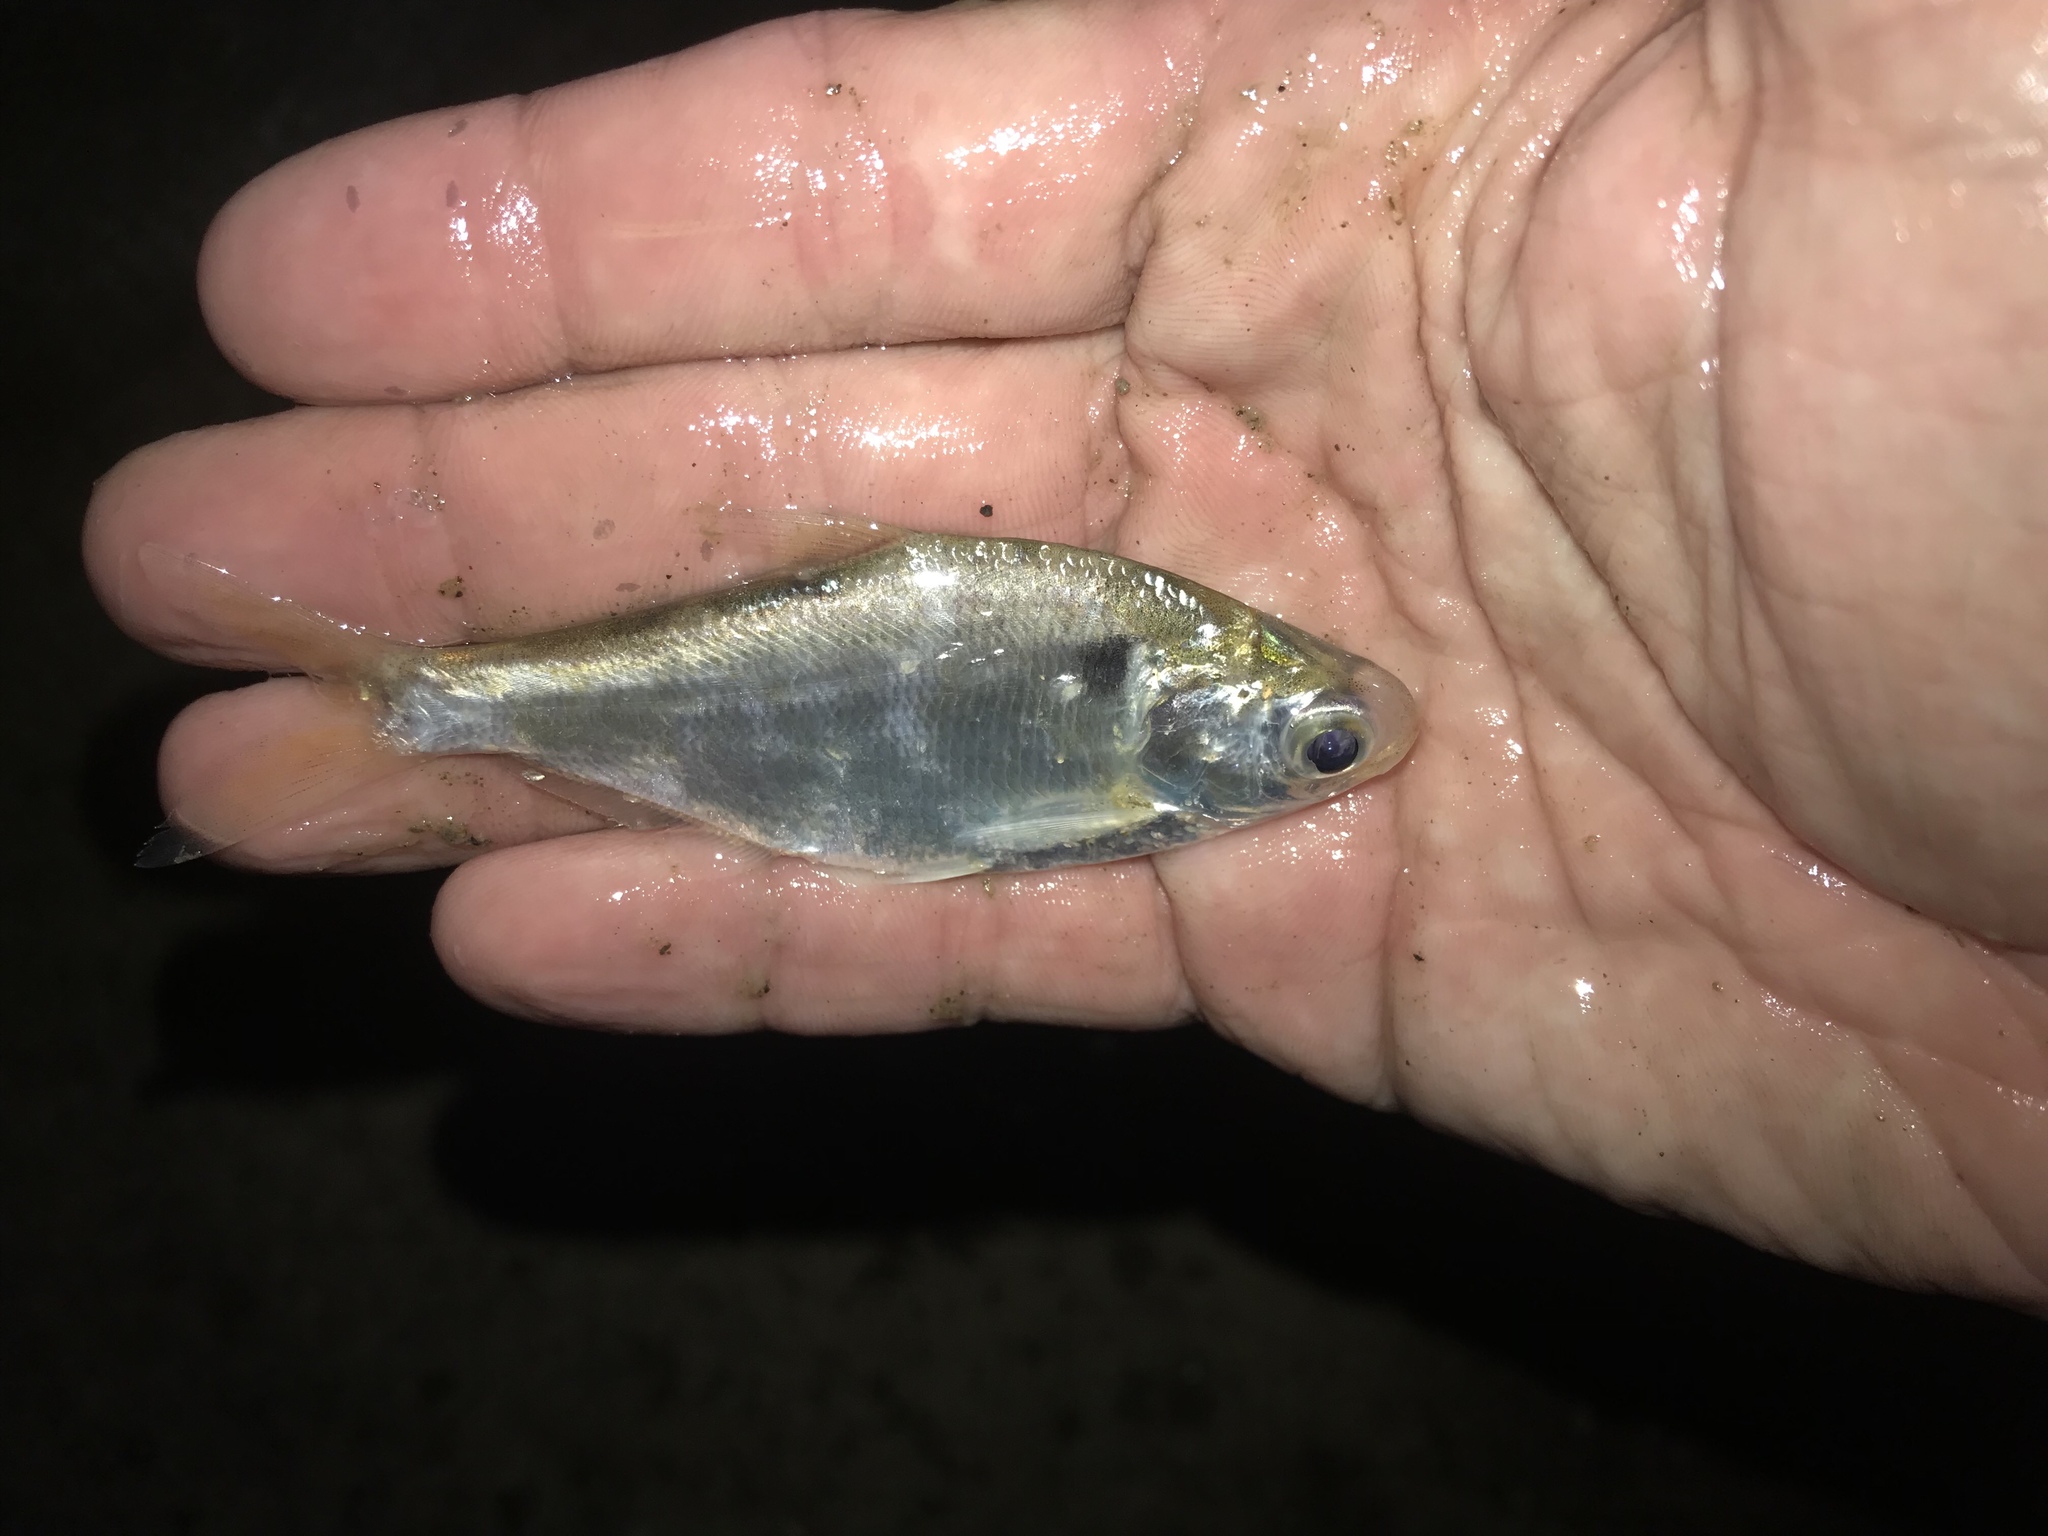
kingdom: Animalia
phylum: Chordata
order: Clupeiformes
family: Clupeidae
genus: Dorosoma
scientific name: Dorosoma cepedianum
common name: Gizzard shad
